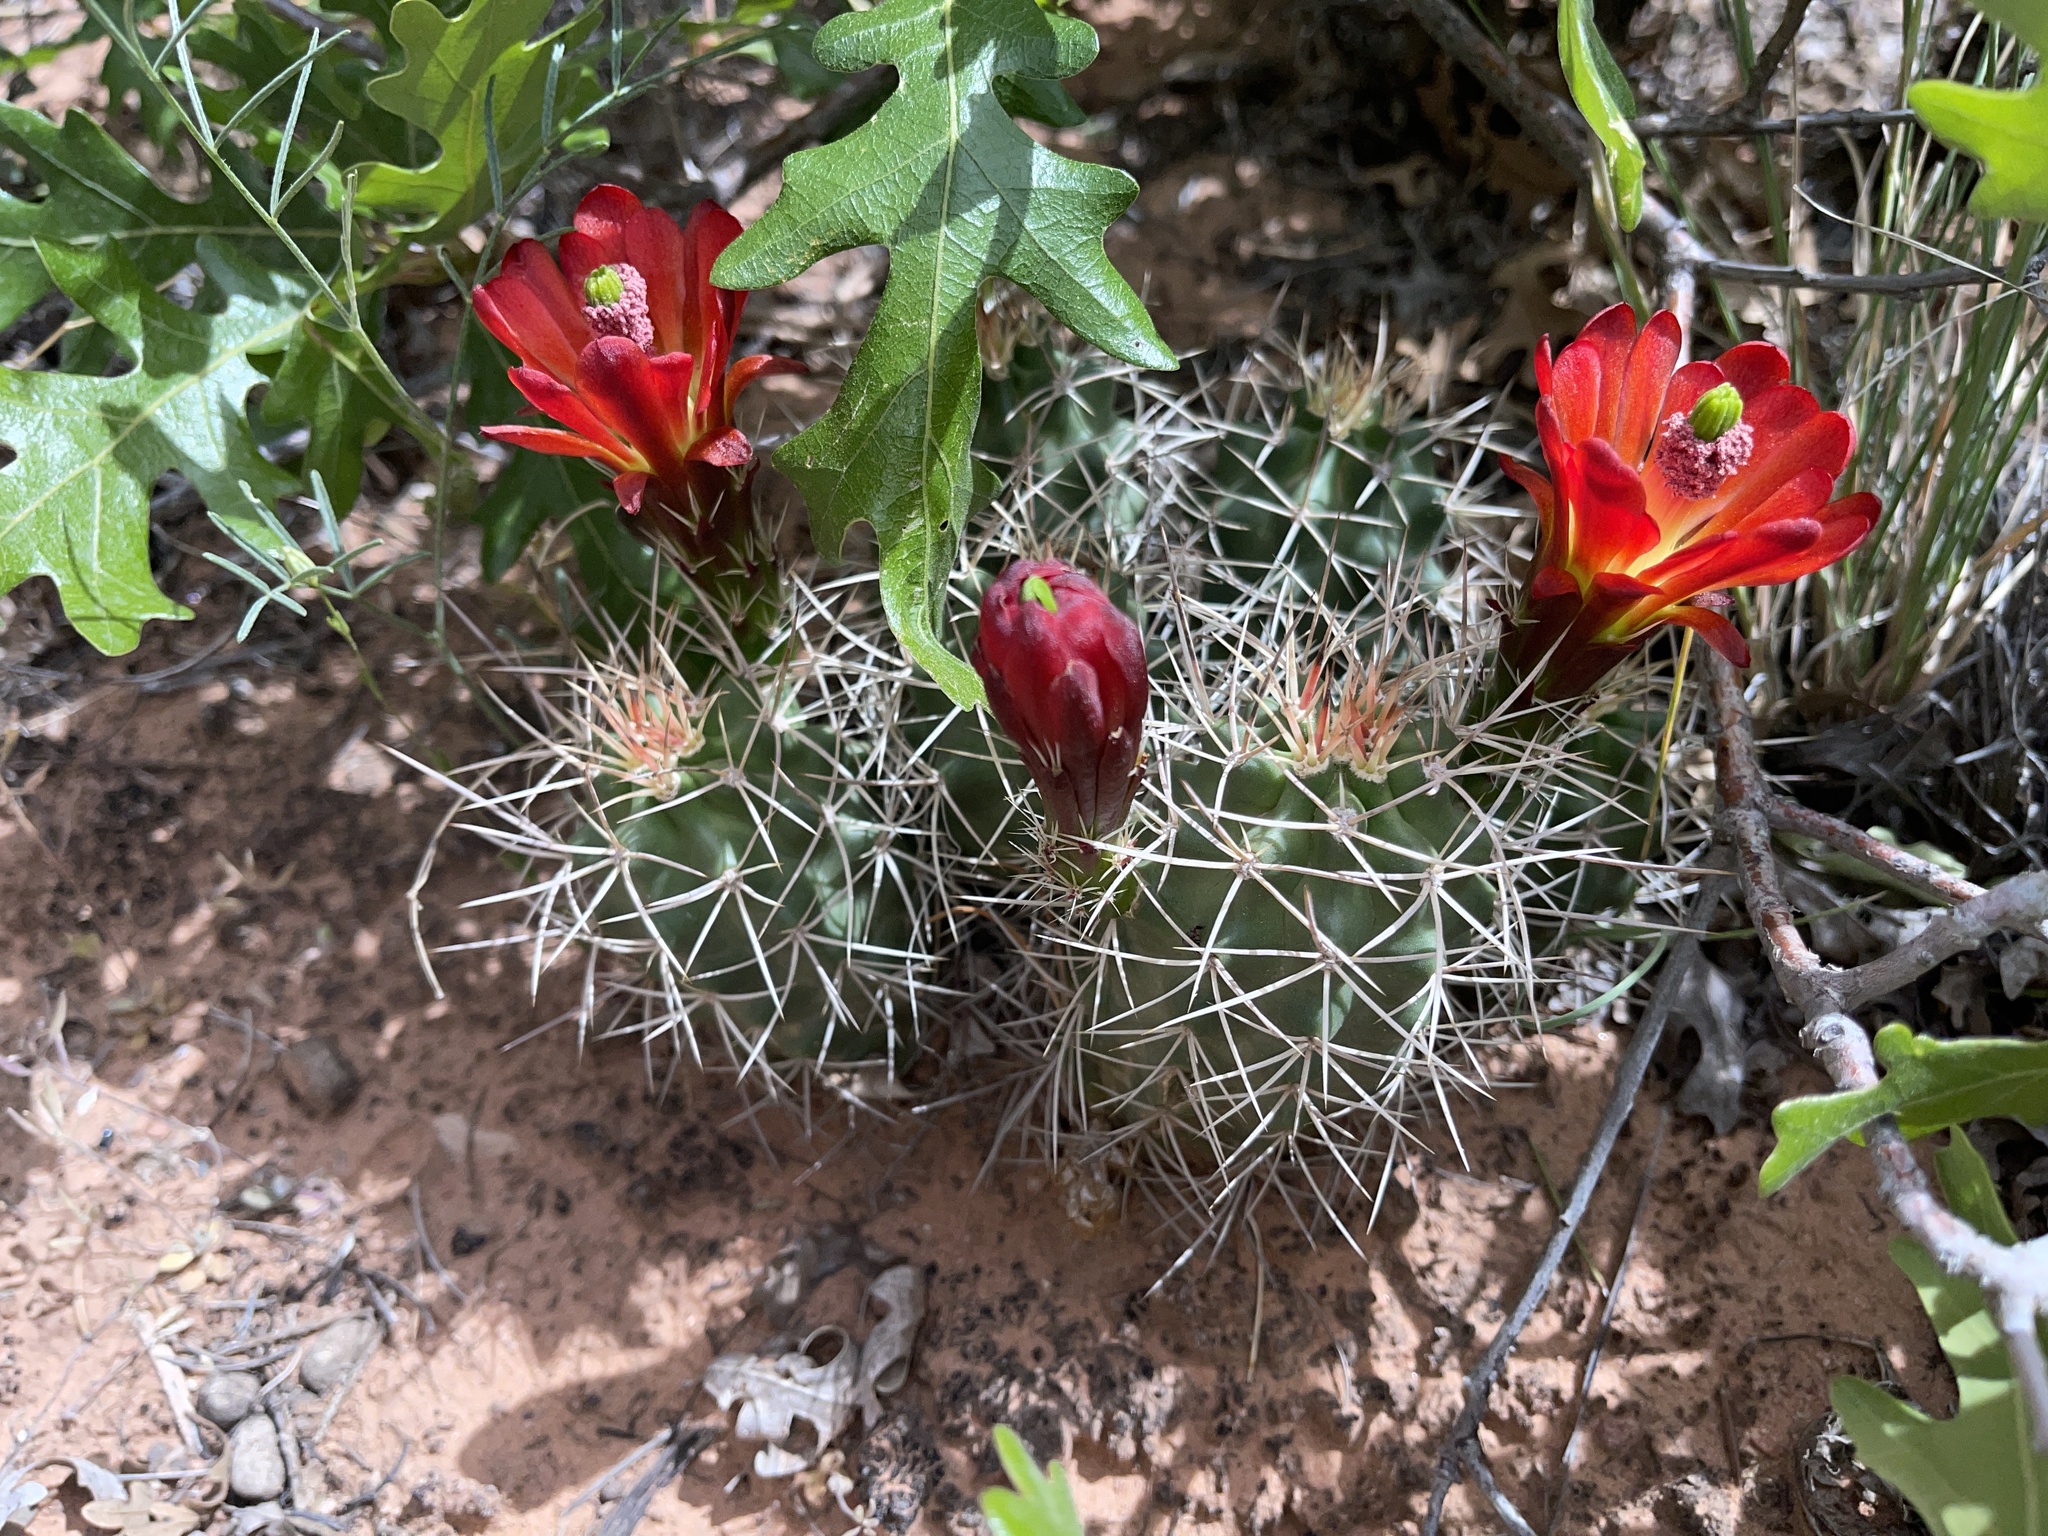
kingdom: Plantae
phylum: Tracheophyta
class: Magnoliopsida
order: Caryophyllales
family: Cactaceae
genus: Echinocereus
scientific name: Echinocereus triglochidiatus
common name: Claretcup hedgehog
